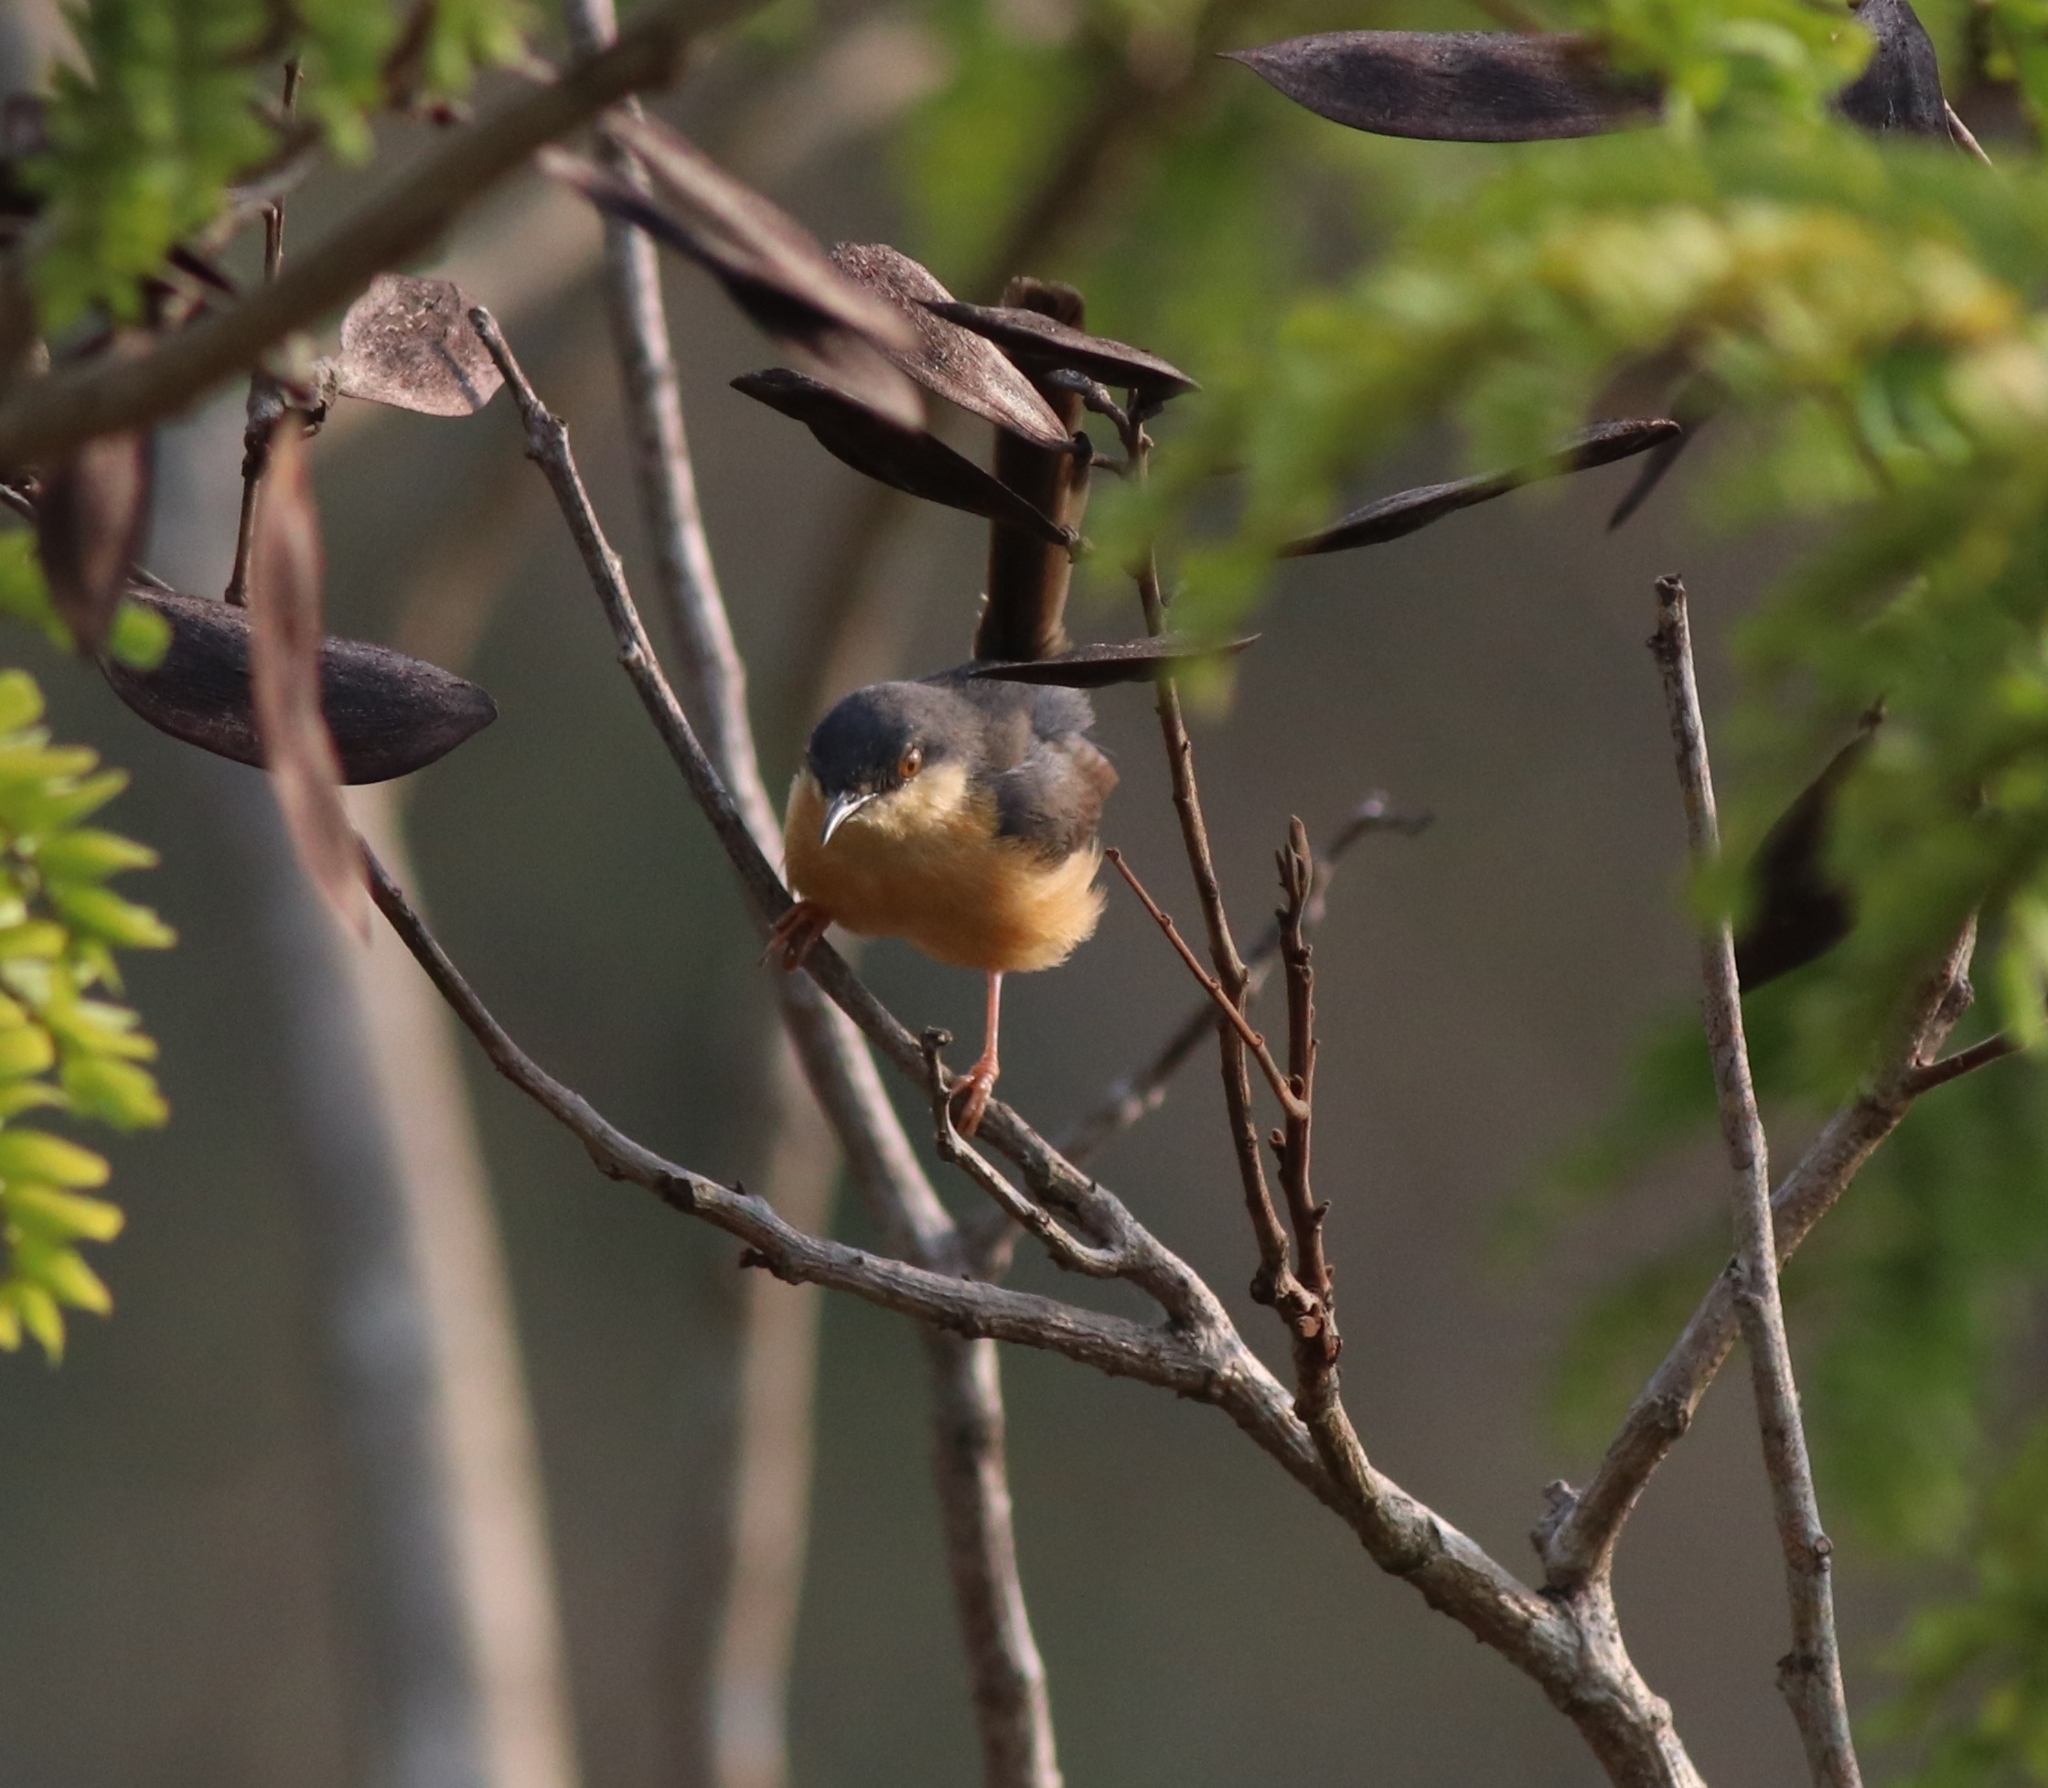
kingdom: Animalia
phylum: Chordata
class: Aves
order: Passeriformes
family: Cisticolidae
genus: Prinia
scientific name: Prinia socialis
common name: Ashy prinia
